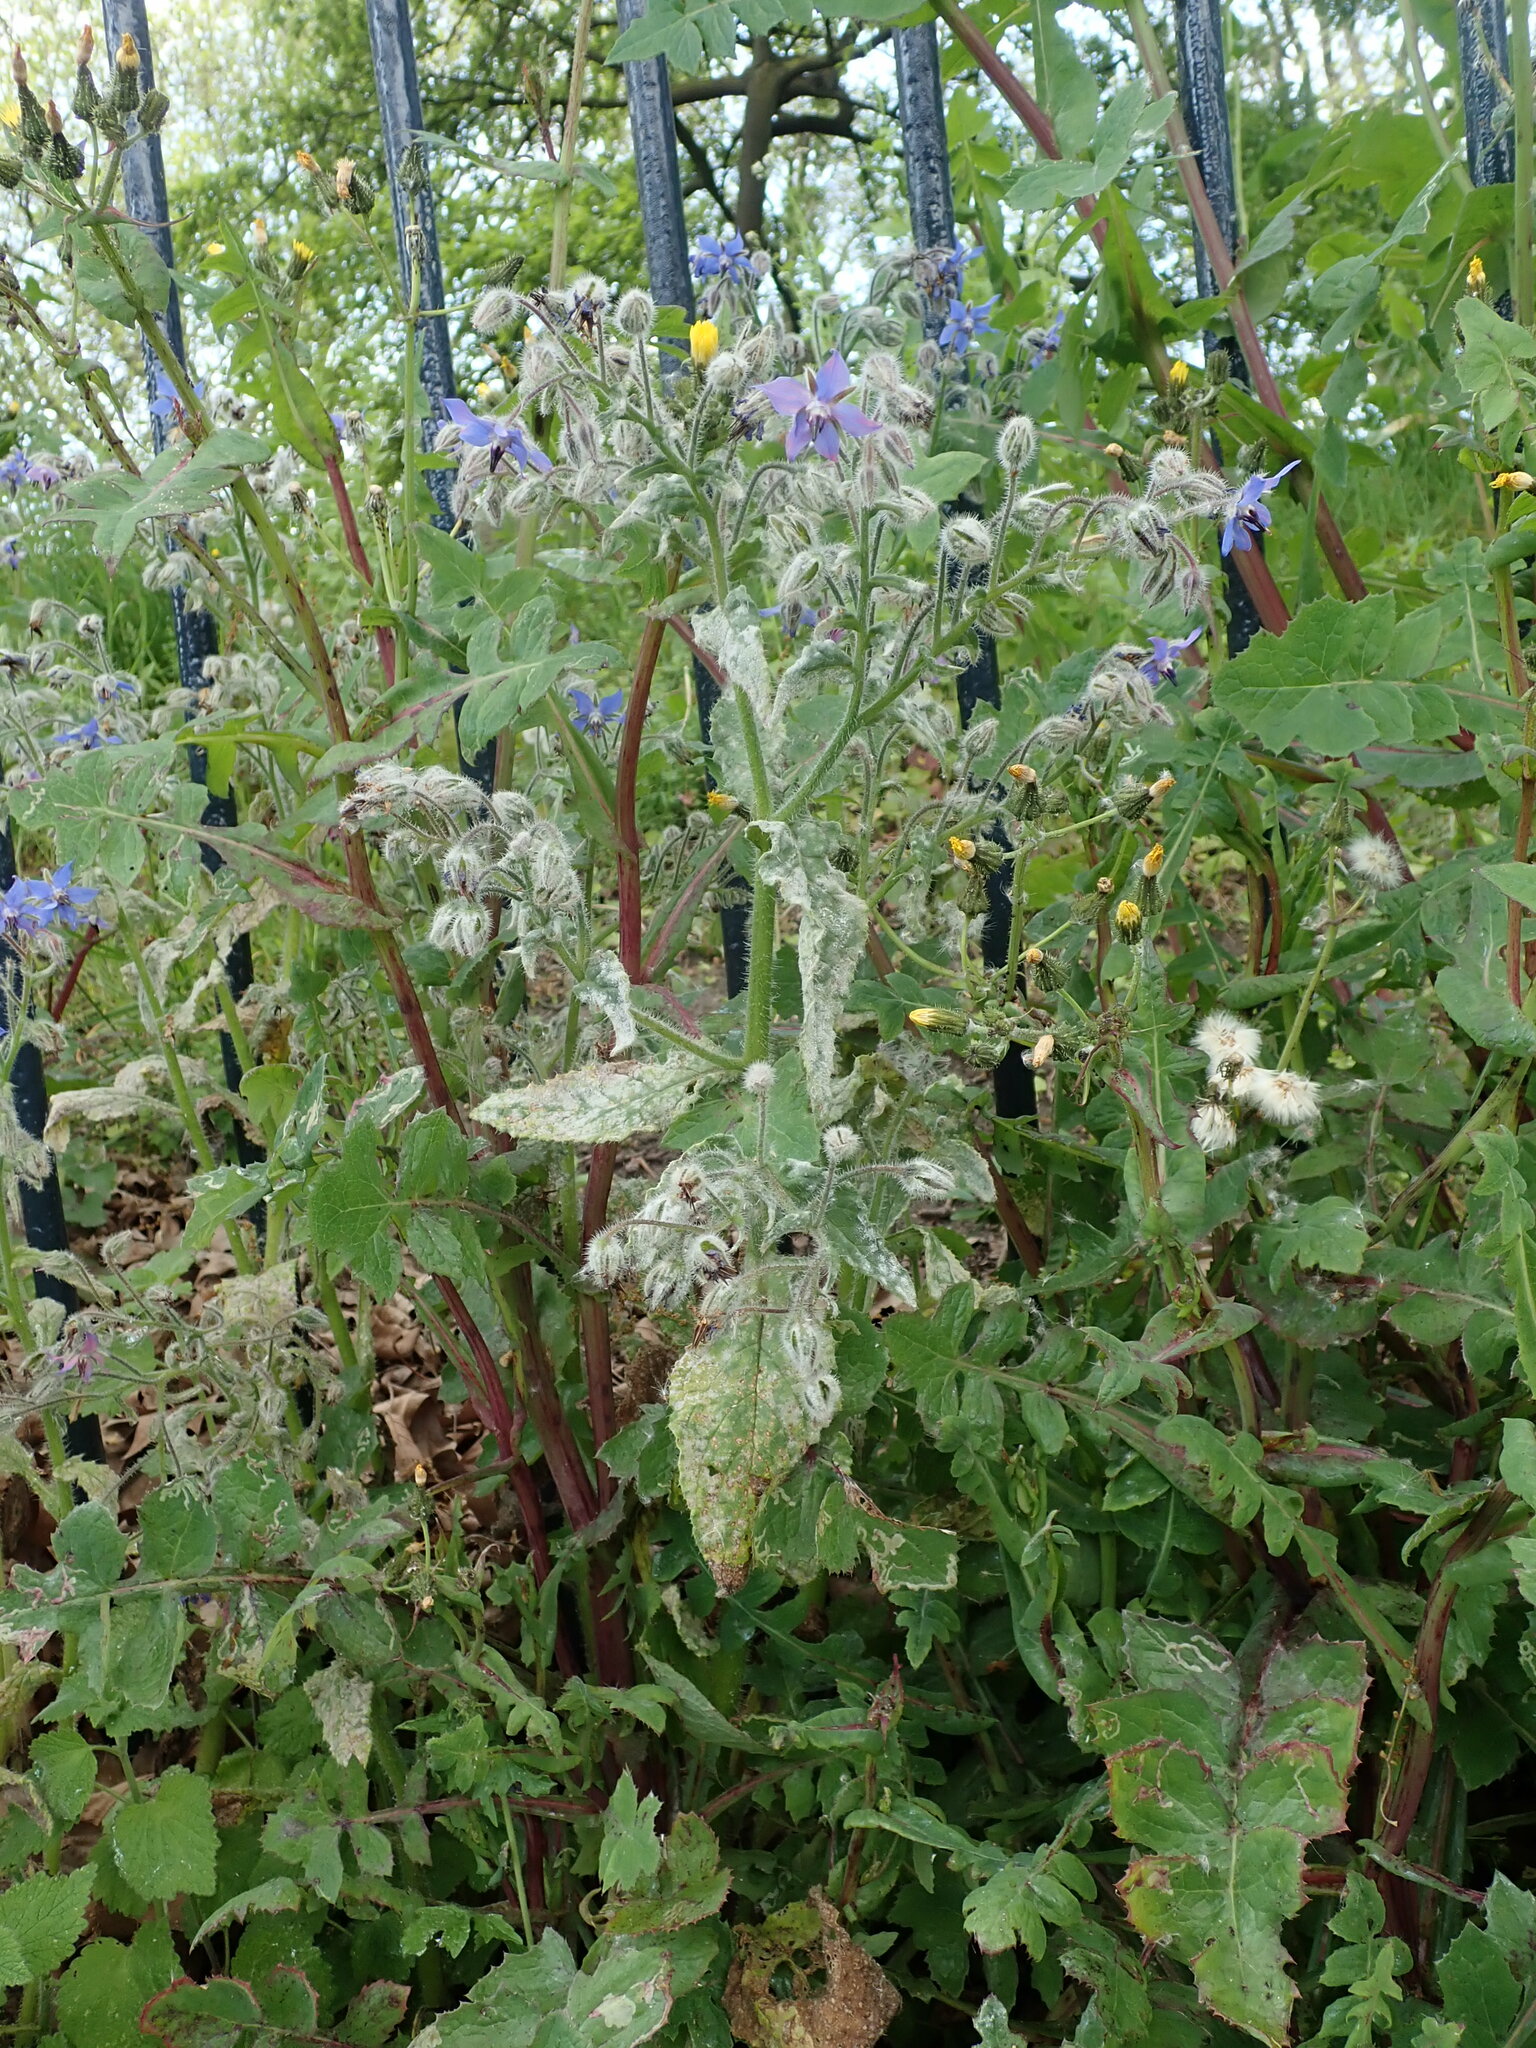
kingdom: Plantae
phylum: Tracheophyta
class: Magnoliopsida
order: Boraginales
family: Boraginaceae
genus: Borago
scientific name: Borago officinalis
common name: Borage
